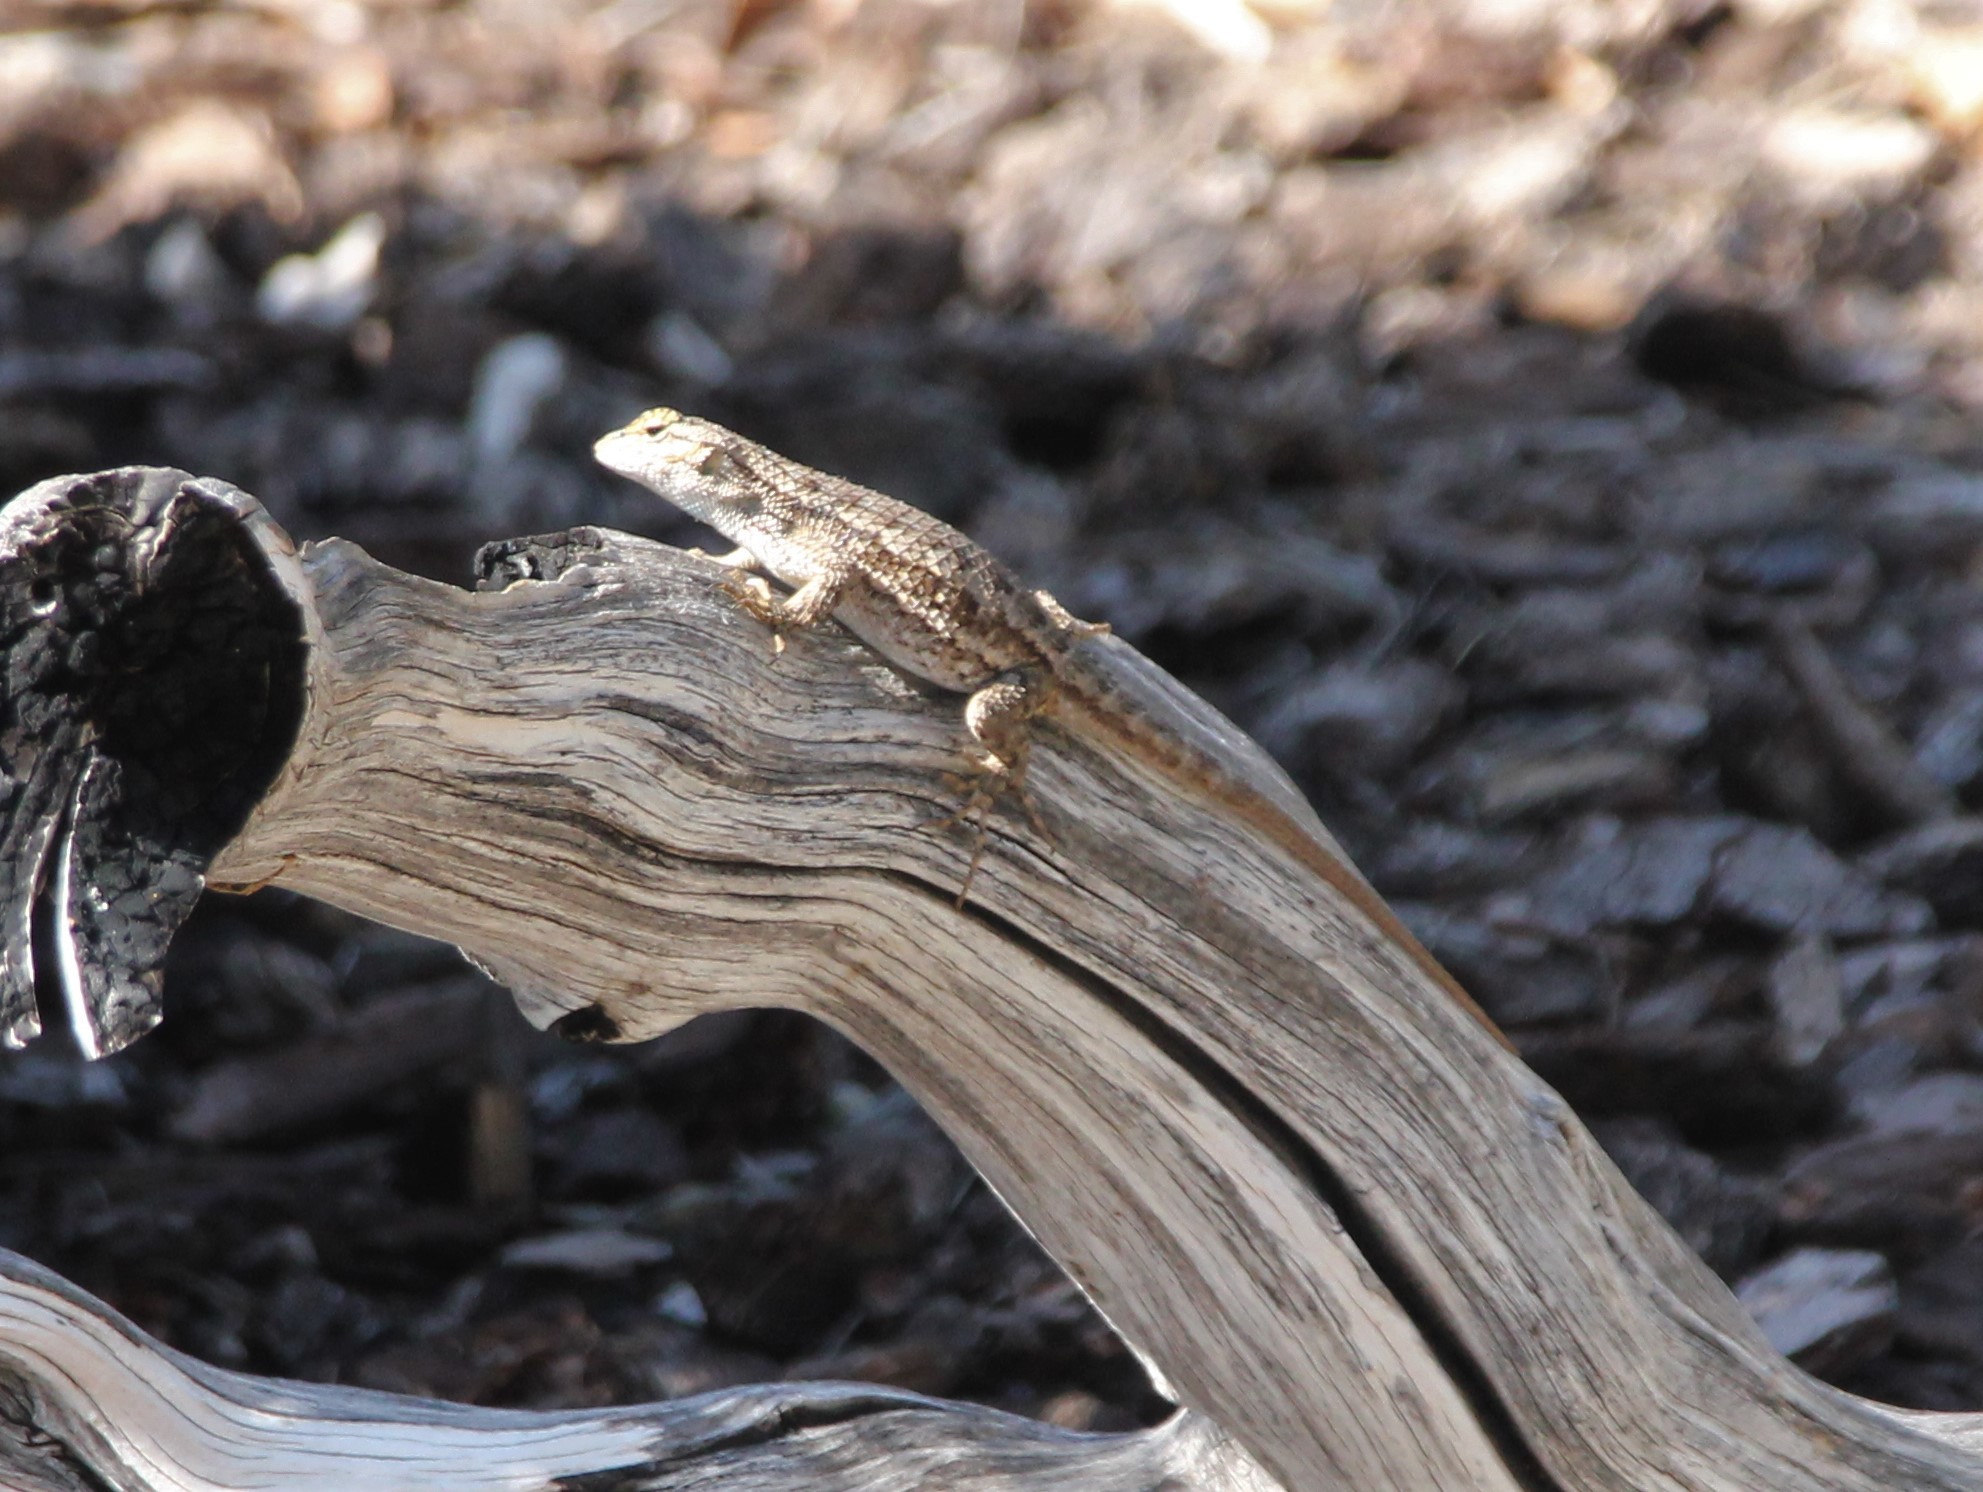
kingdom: Animalia
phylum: Chordata
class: Squamata
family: Phrynosomatidae
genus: Sceloporus
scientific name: Sceloporus occidentalis
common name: Western fence lizard
